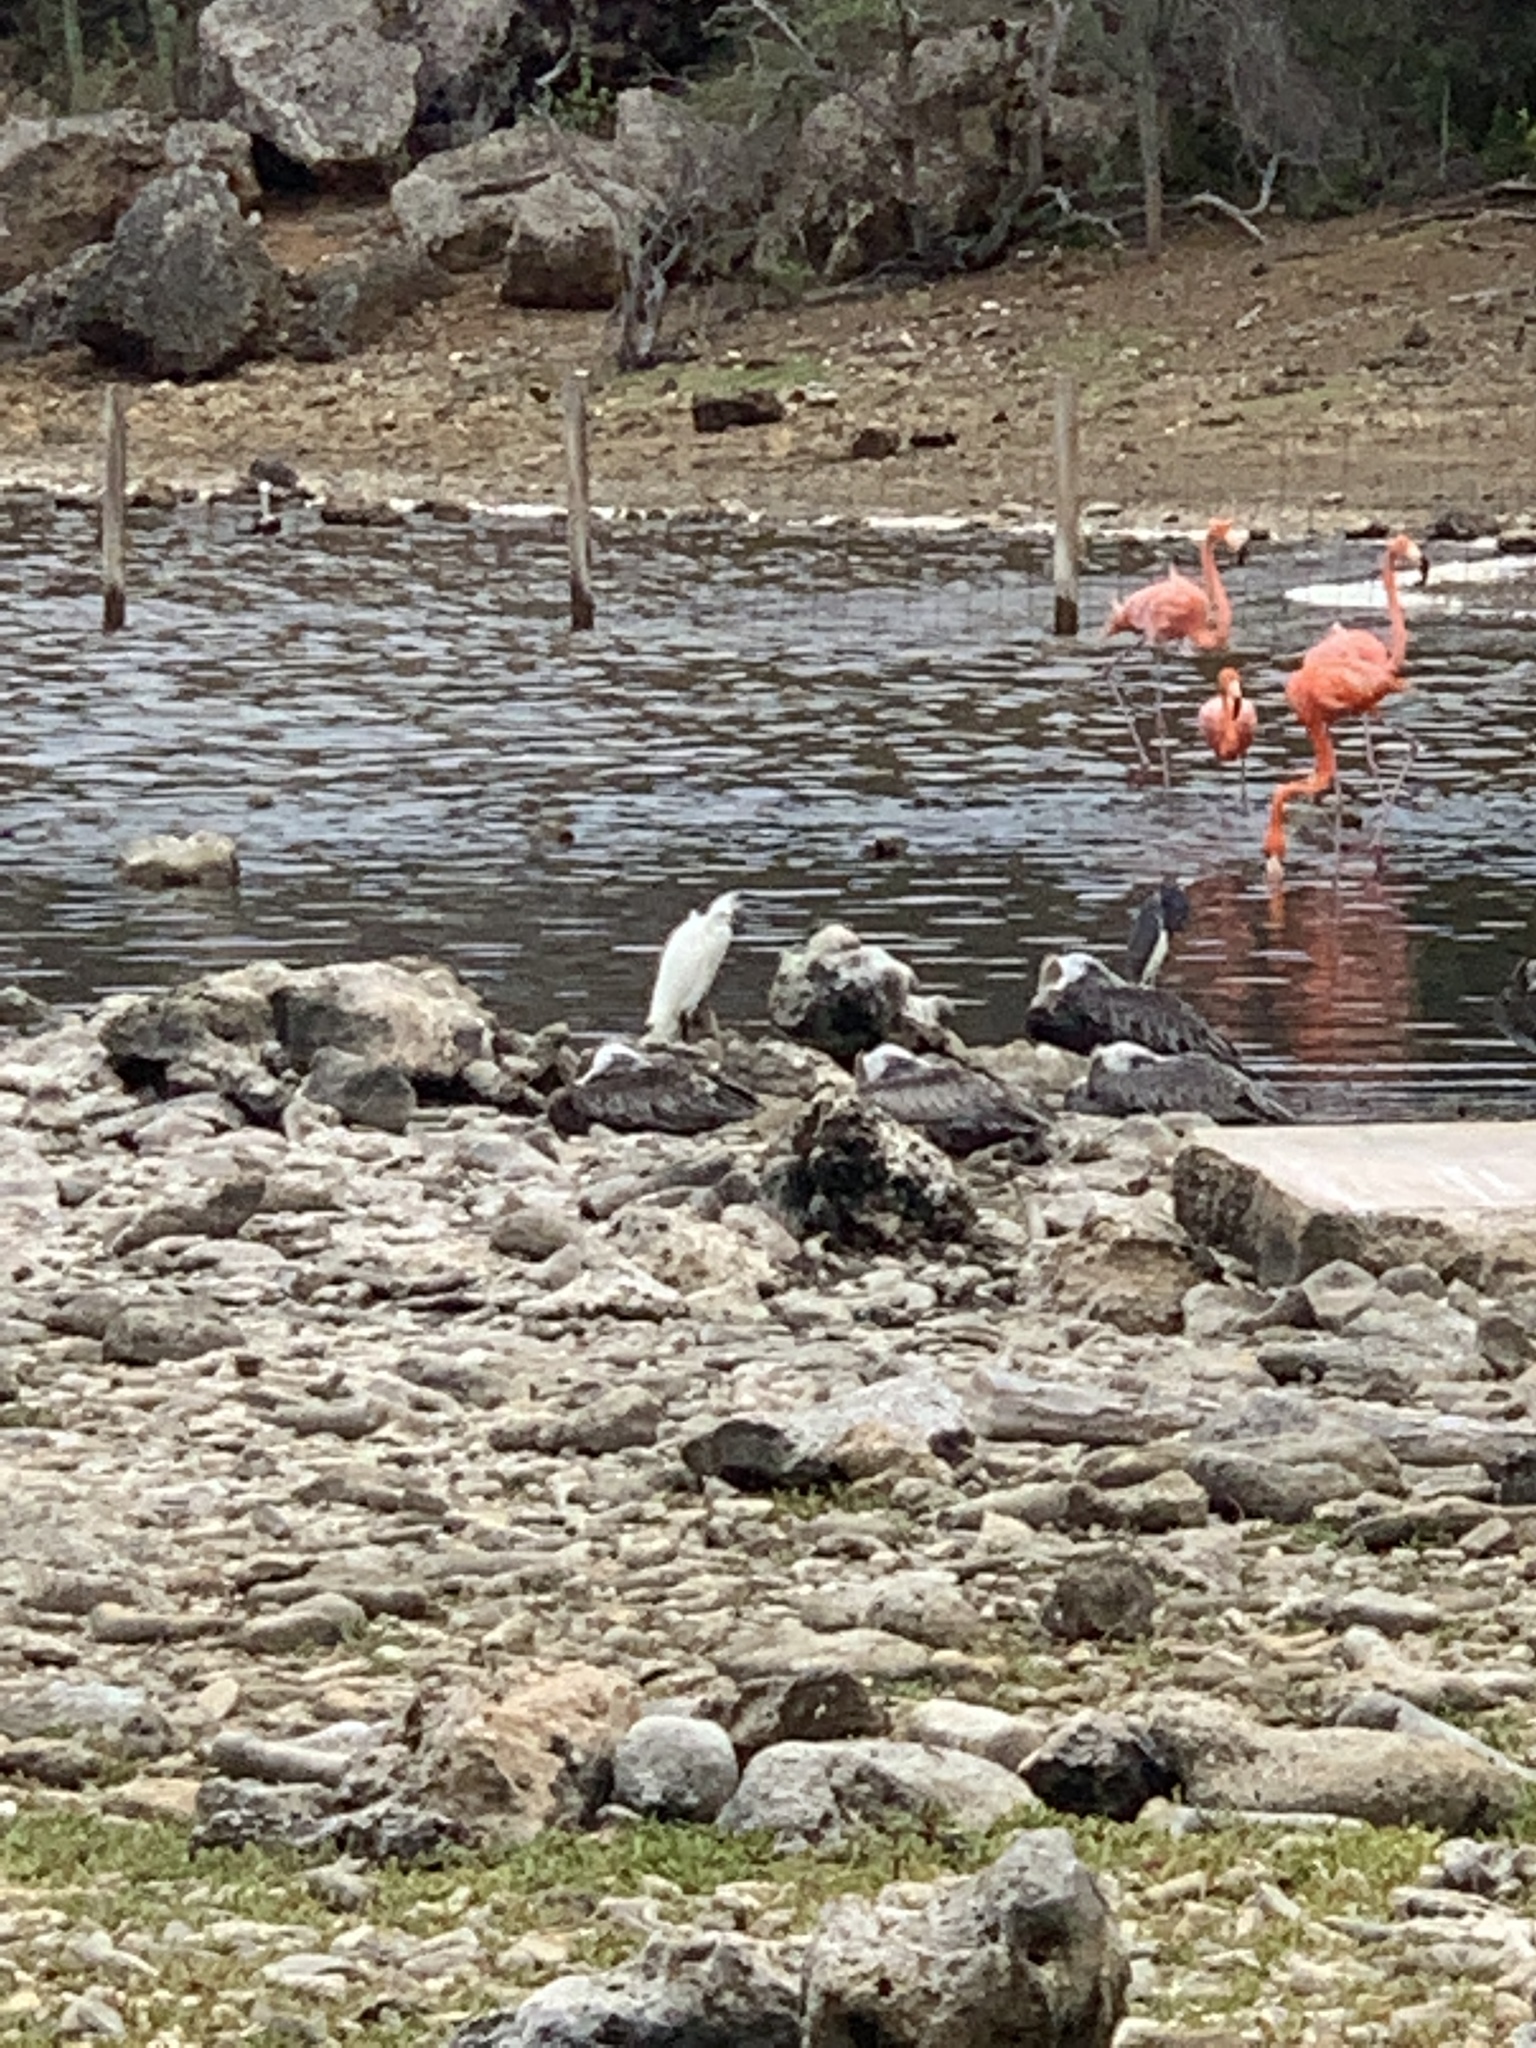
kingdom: Animalia
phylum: Chordata
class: Aves
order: Phoenicopteriformes
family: Phoenicopteridae
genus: Phoenicopterus
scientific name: Phoenicopterus ruber
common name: American flamingo
